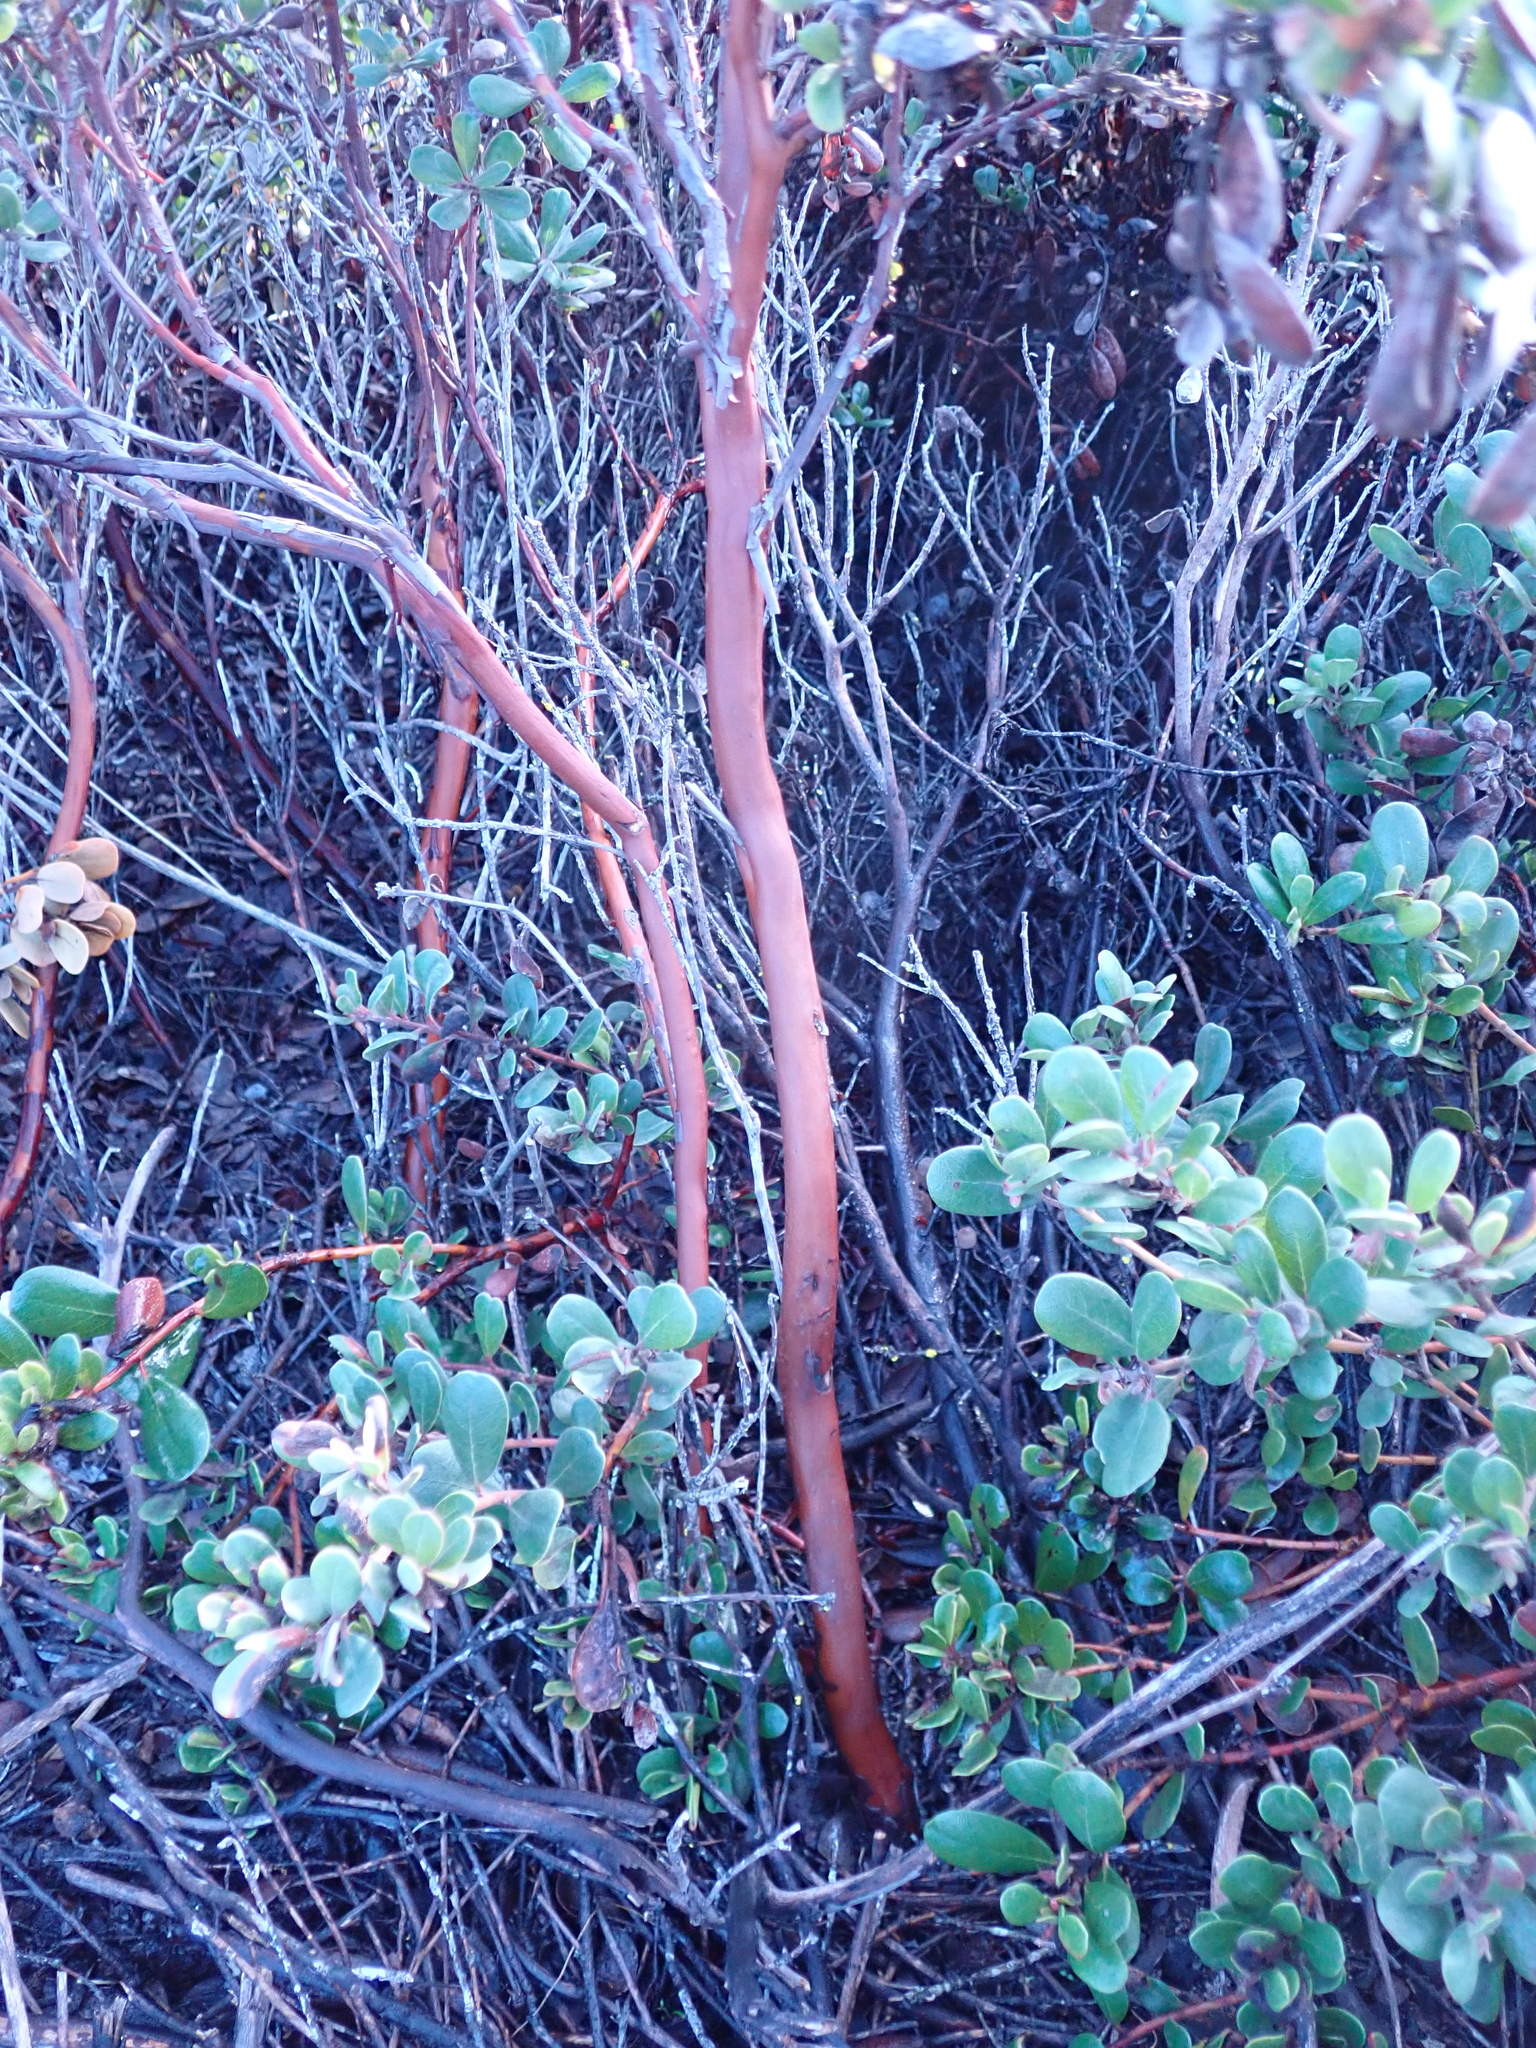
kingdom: Plantae
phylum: Tracheophyta
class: Magnoliopsida
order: Ericales
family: Ericaceae
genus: Arctostaphylos
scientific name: Arctostaphylos pumila
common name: Sandmat manzanita
